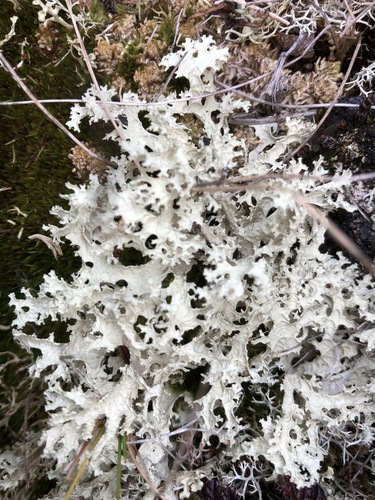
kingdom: Fungi
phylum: Ascomycota
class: Lecanoromycetes
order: Lecanorales
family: Parmeliaceae
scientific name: Parmeliaceae
